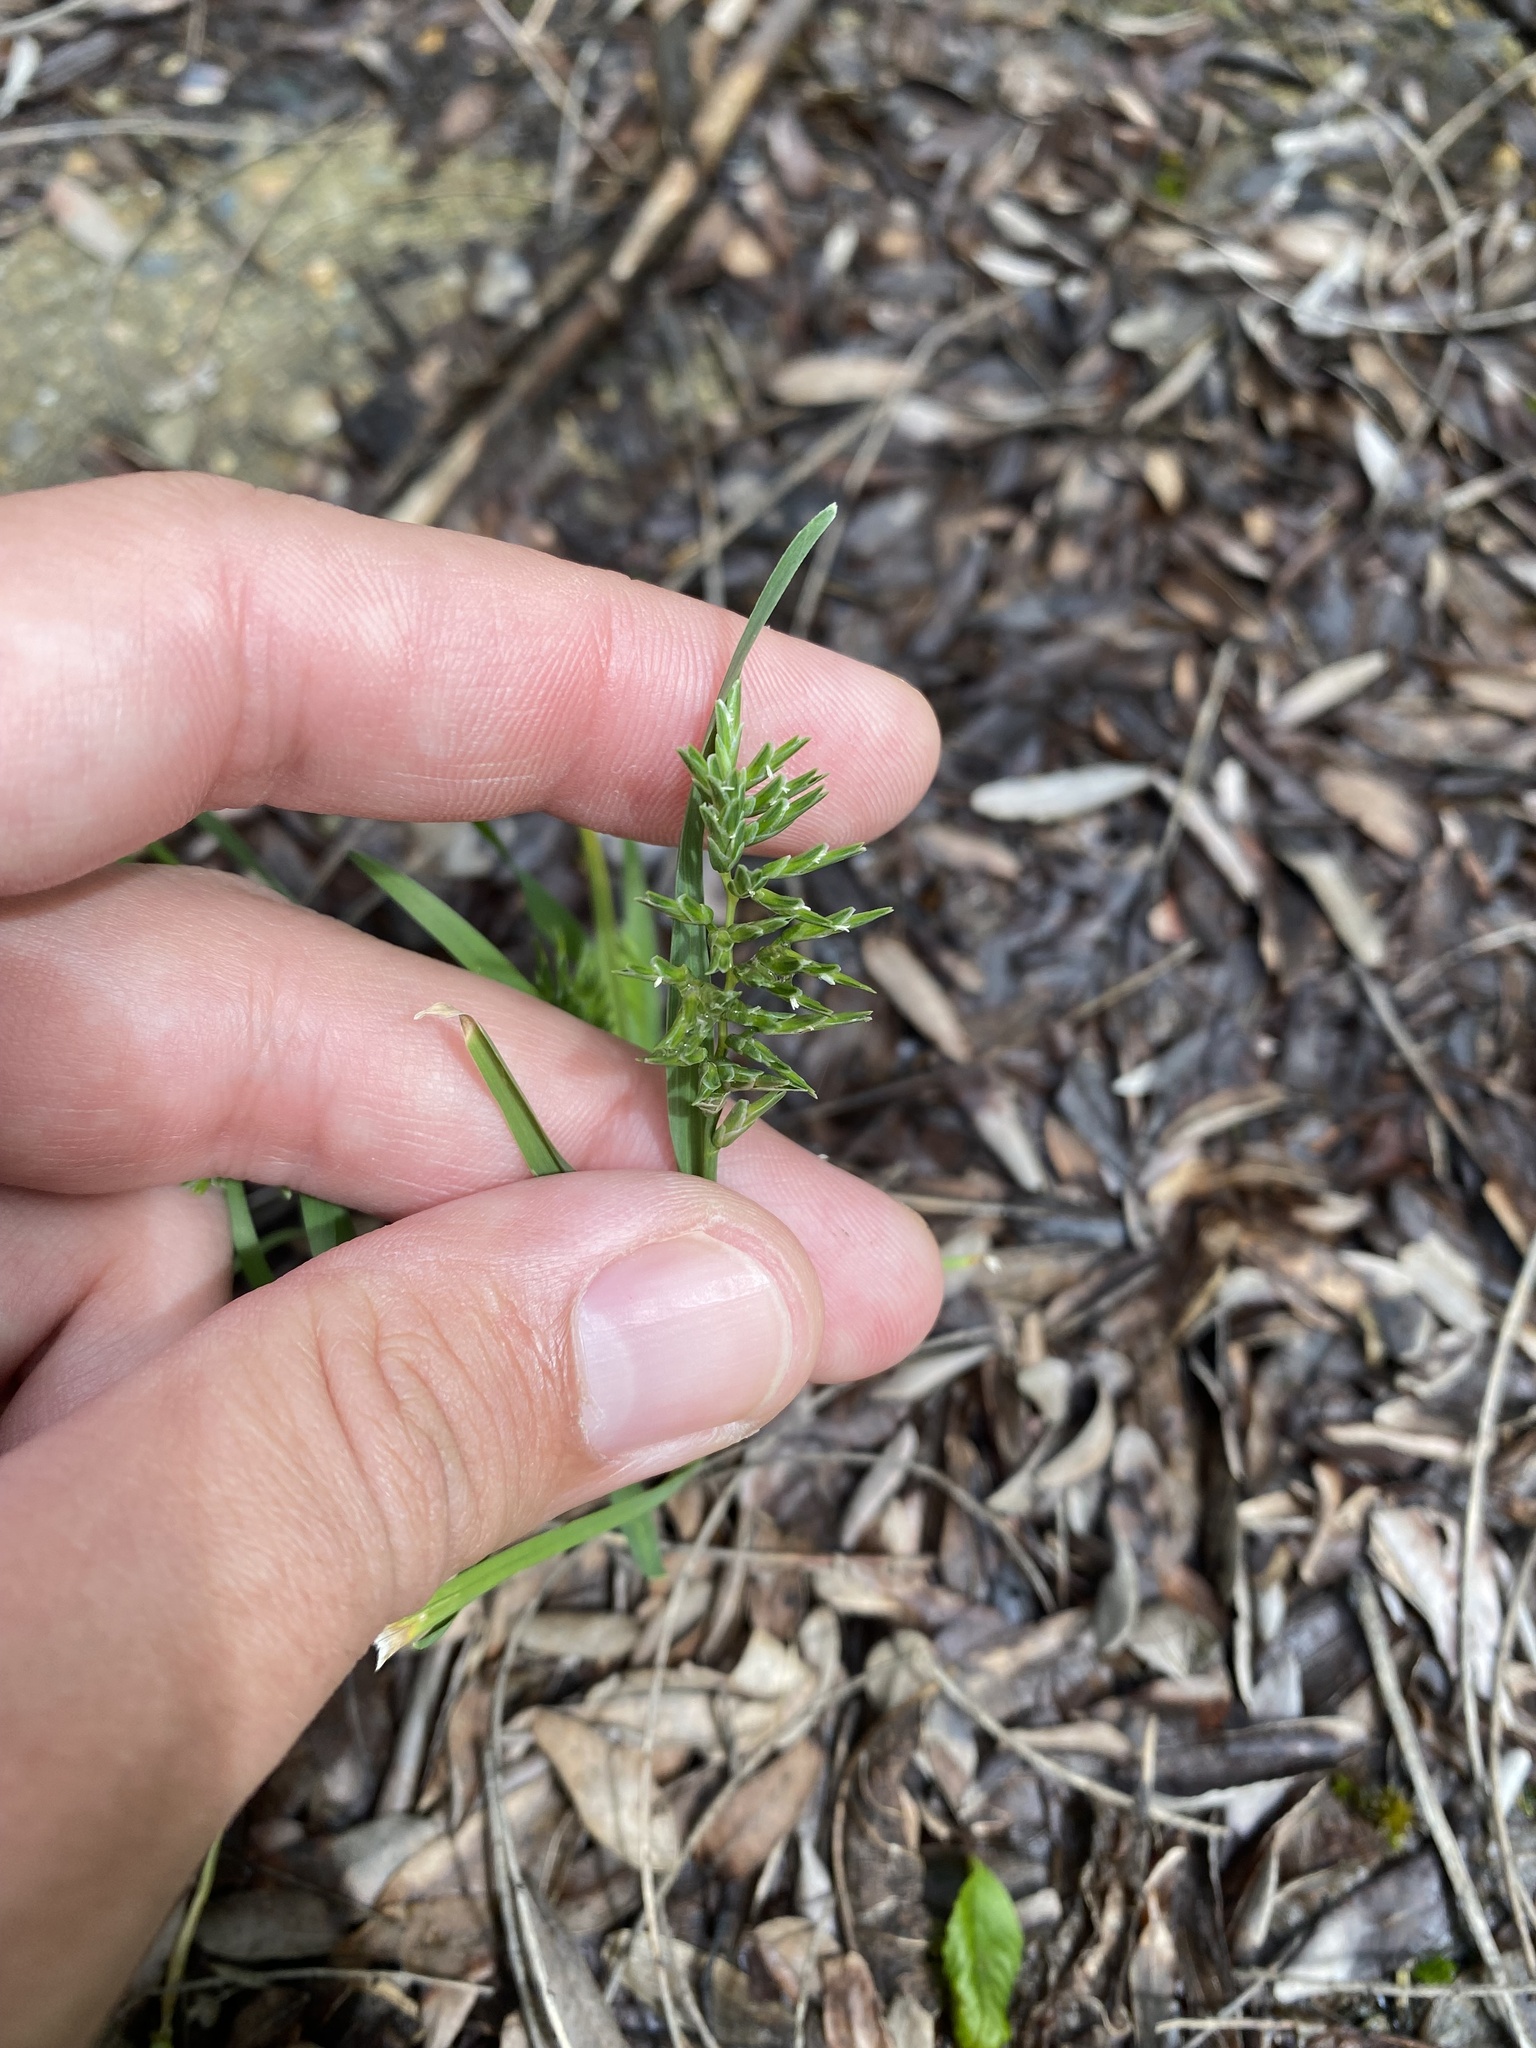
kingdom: Plantae
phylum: Tracheophyta
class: Liliopsida
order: Poales
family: Poaceae
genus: Sclerochloa
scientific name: Sclerochloa dura
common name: Common hardgrass
